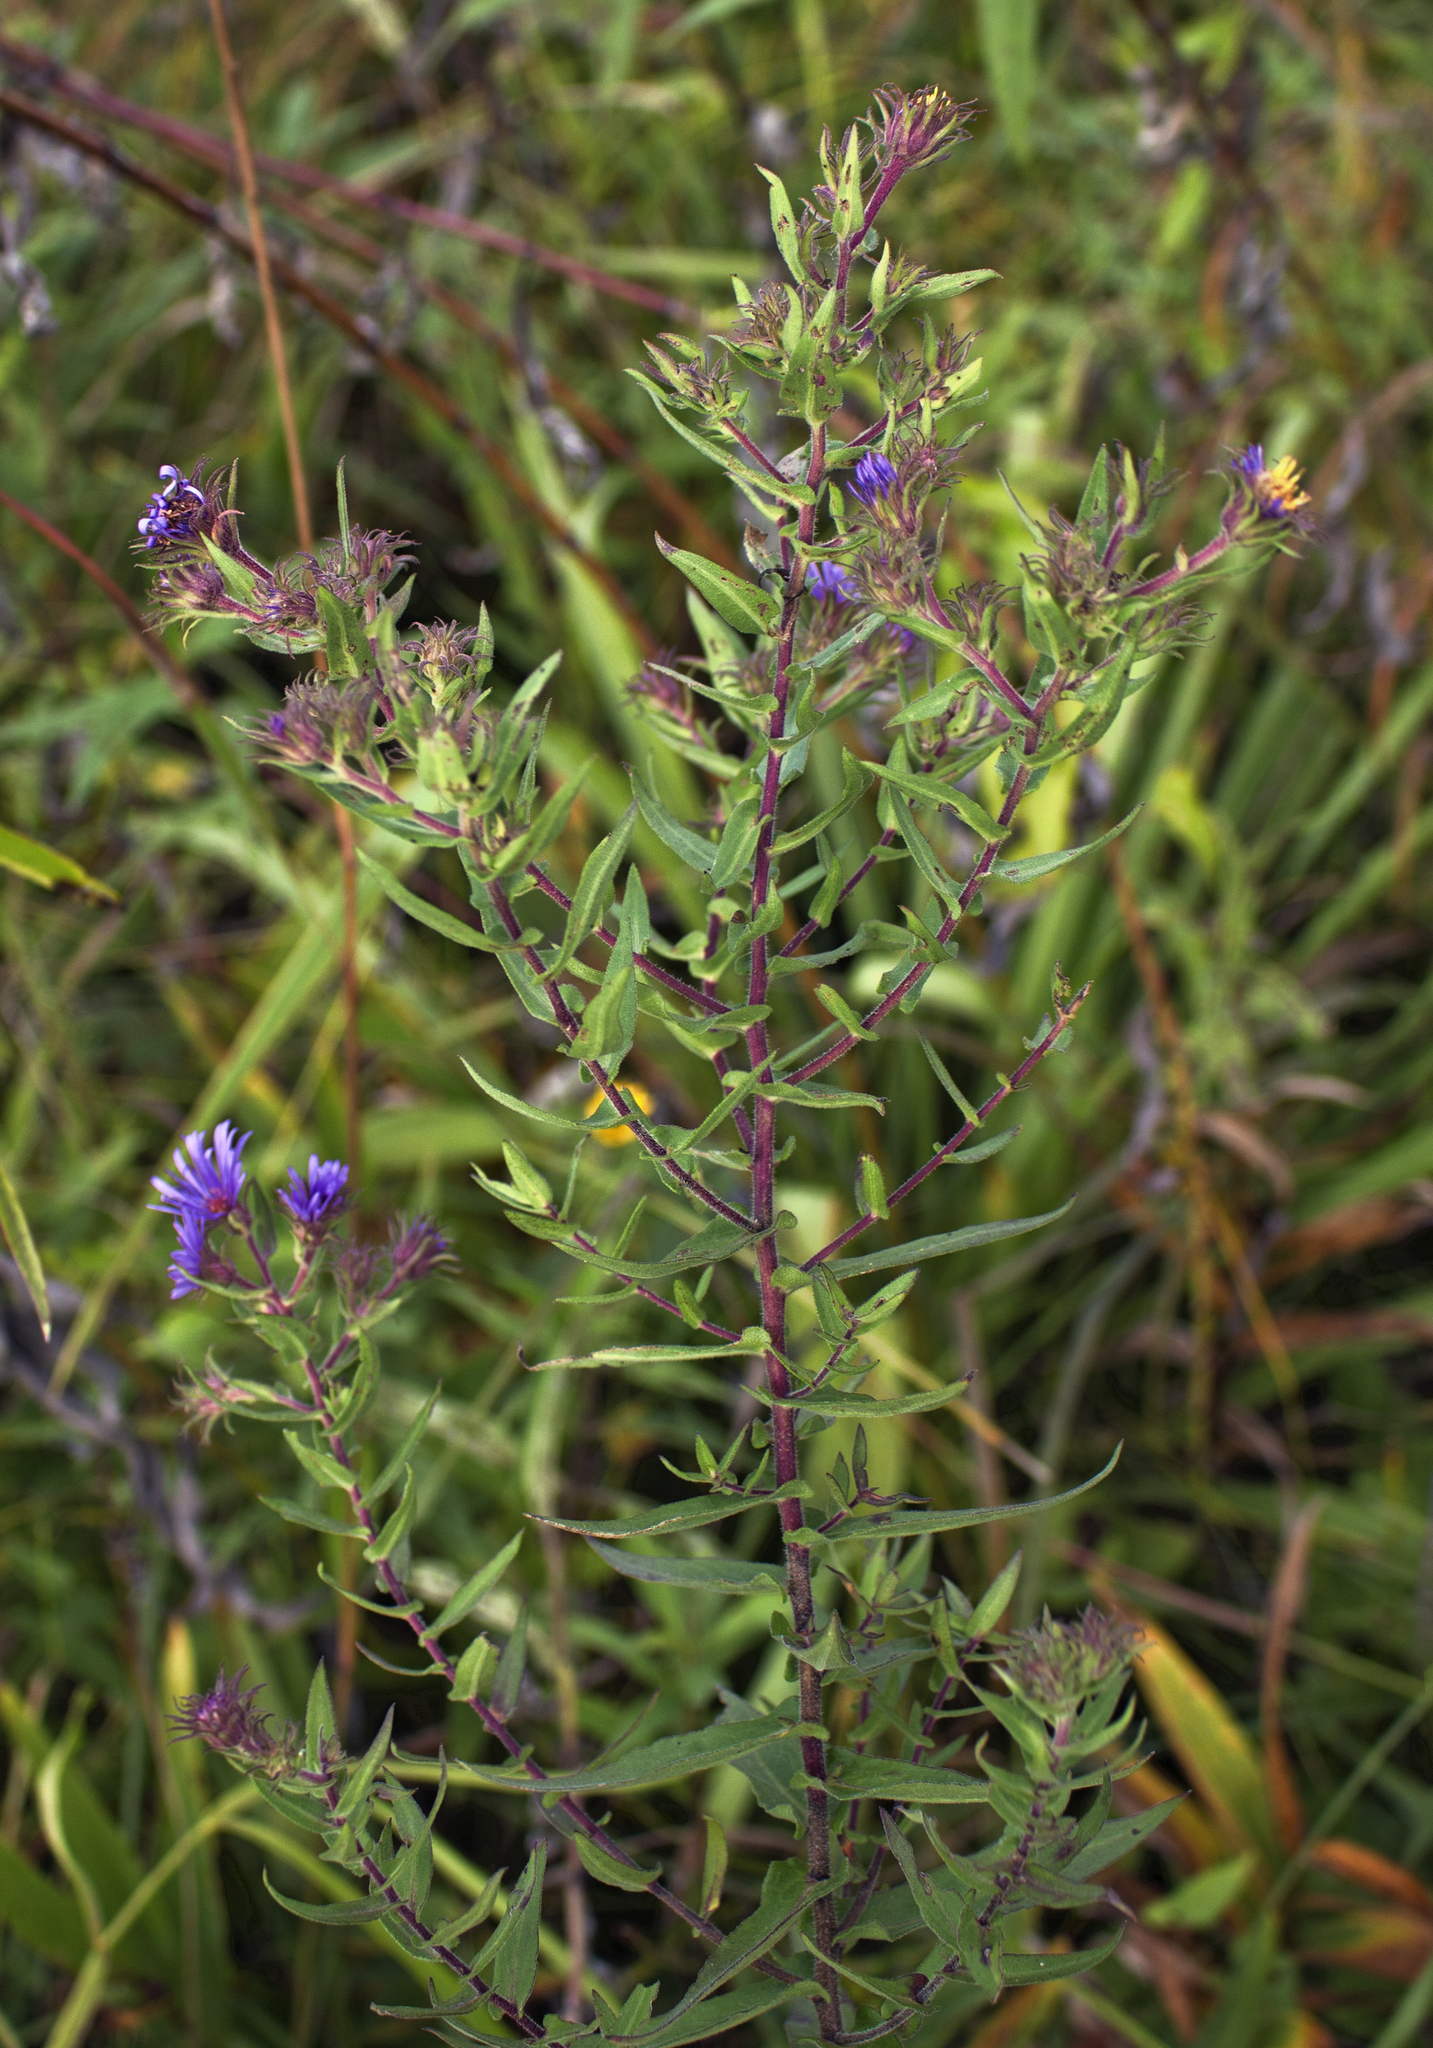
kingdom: Plantae
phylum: Tracheophyta
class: Magnoliopsida
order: Asterales
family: Asteraceae
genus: Symphyotrichum
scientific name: Symphyotrichum novae-angliae
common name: Michaelmas daisy
